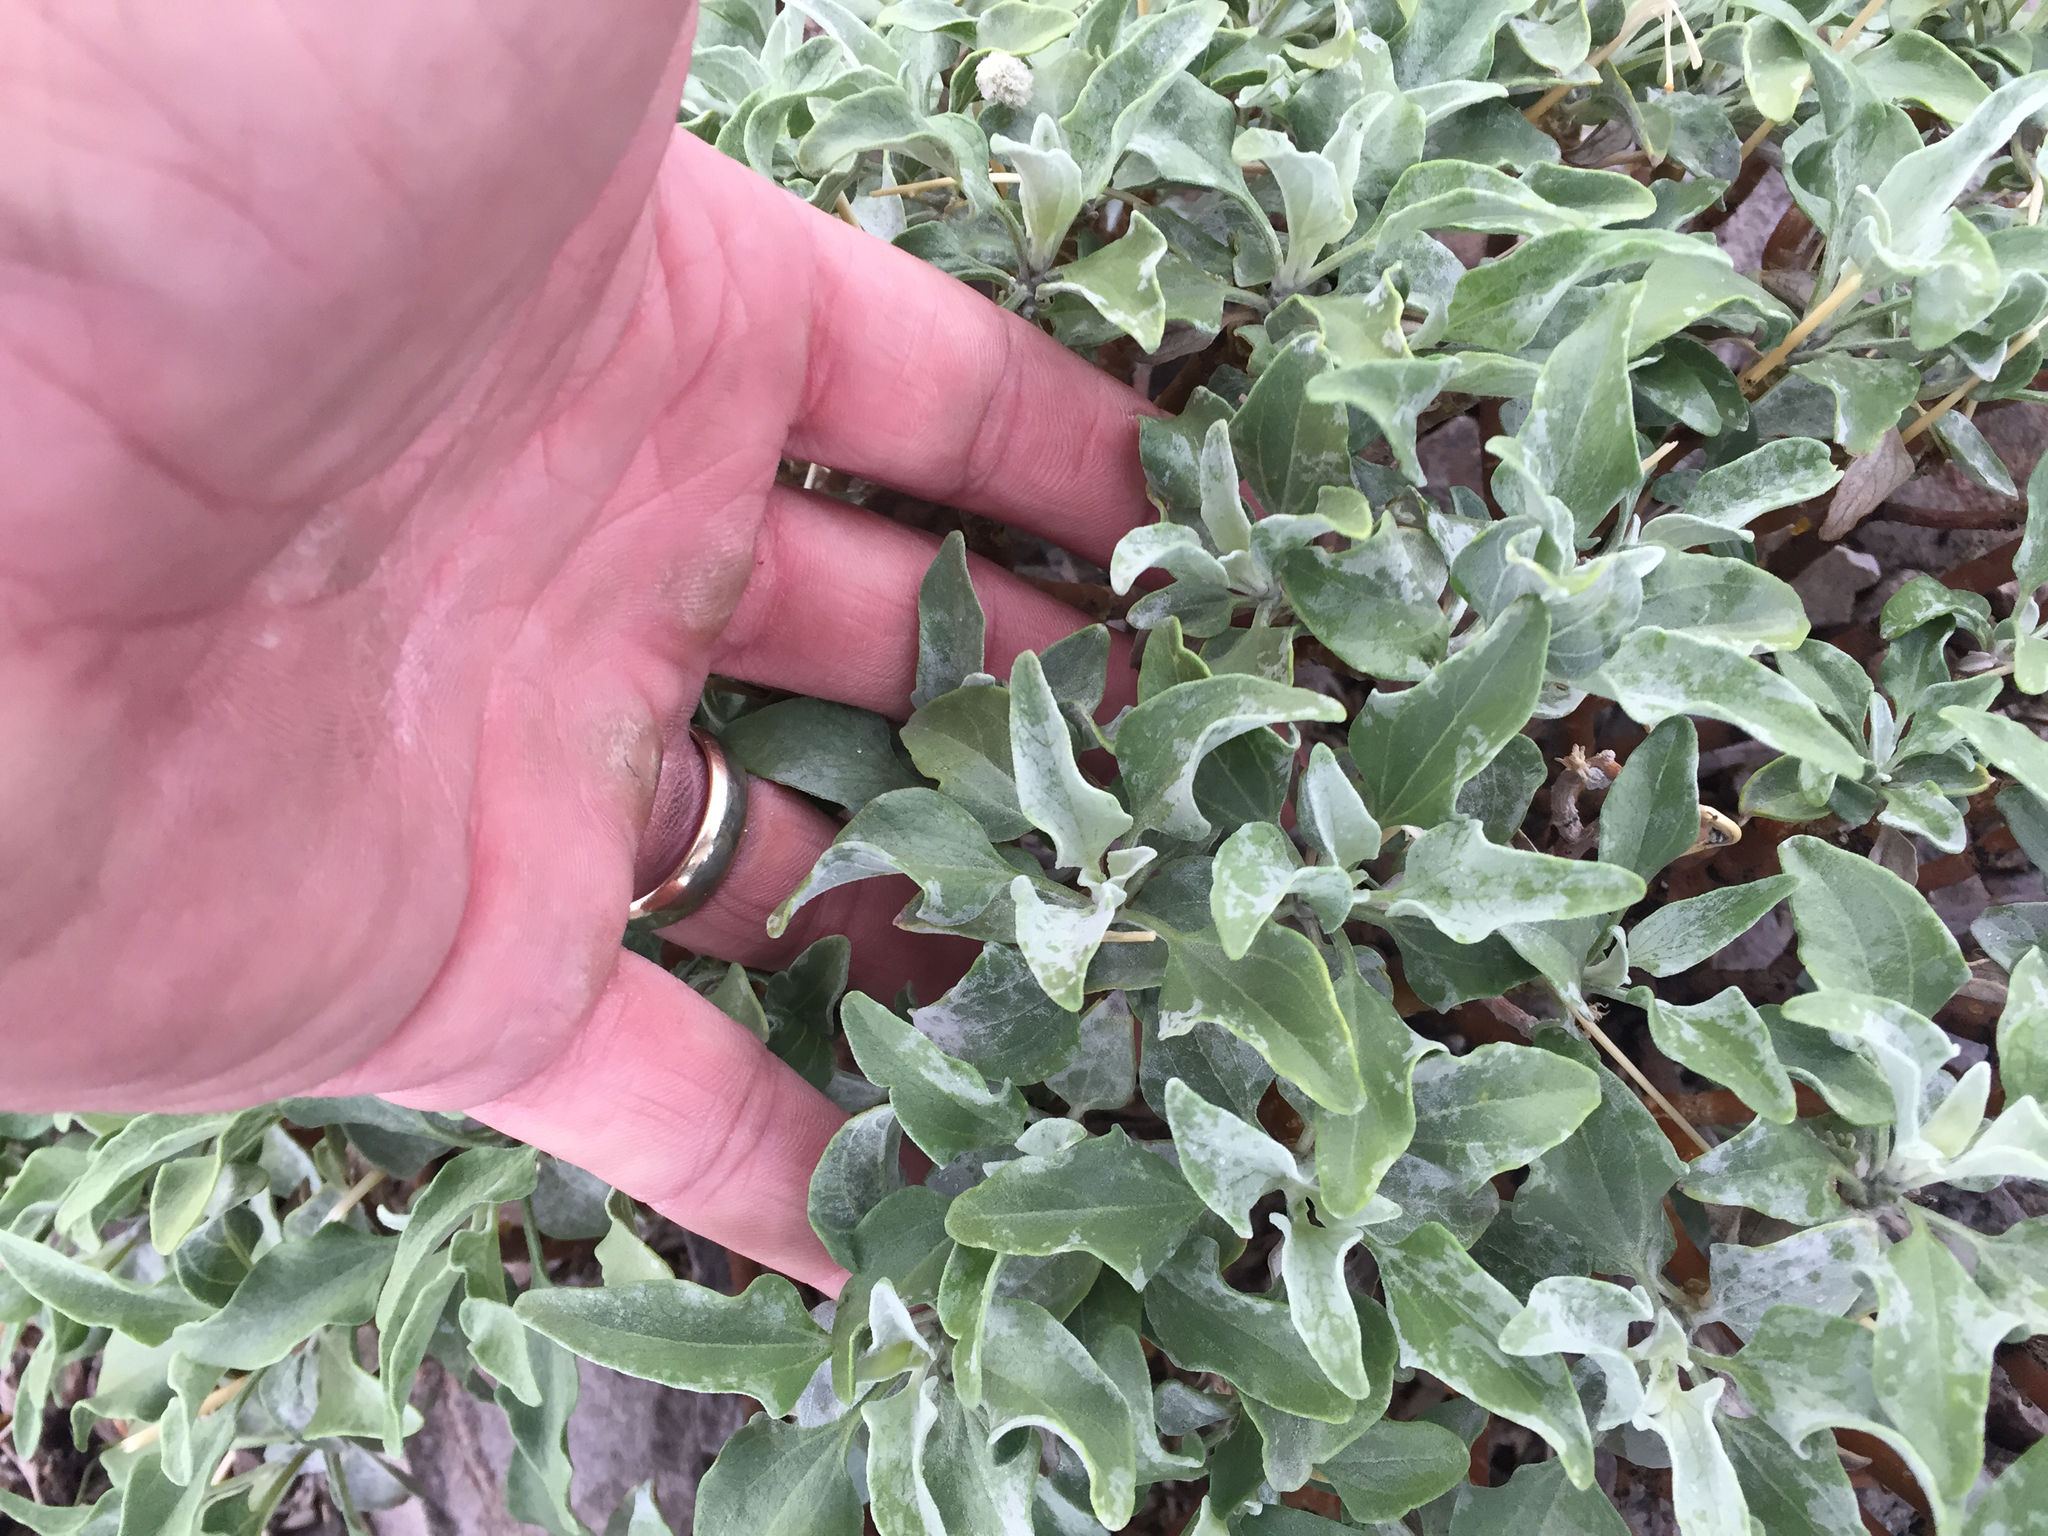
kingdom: Plantae
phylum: Tracheophyta
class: Magnoliopsida
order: Asterales
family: Asteraceae
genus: Encelia
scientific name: Encelia farinosa
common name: Brittlebush
